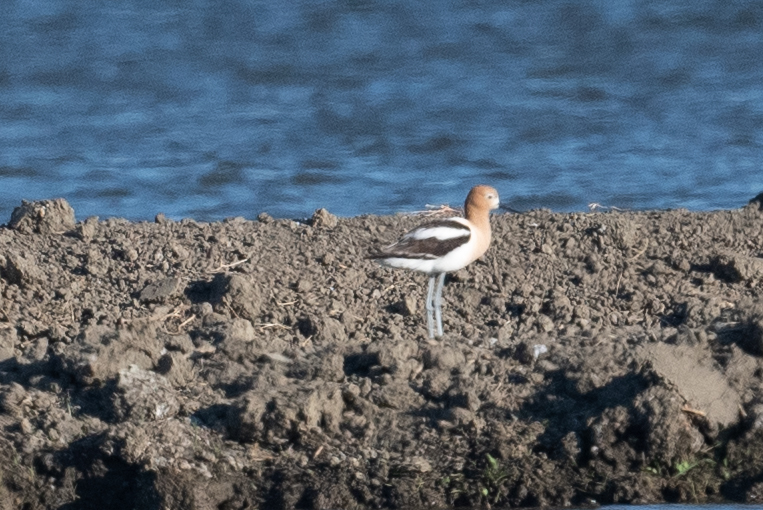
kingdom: Animalia
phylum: Chordata
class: Aves
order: Charadriiformes
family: Recurvirostridae
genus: Recurvirostra
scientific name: Recurvirostra americana
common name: American avocet
